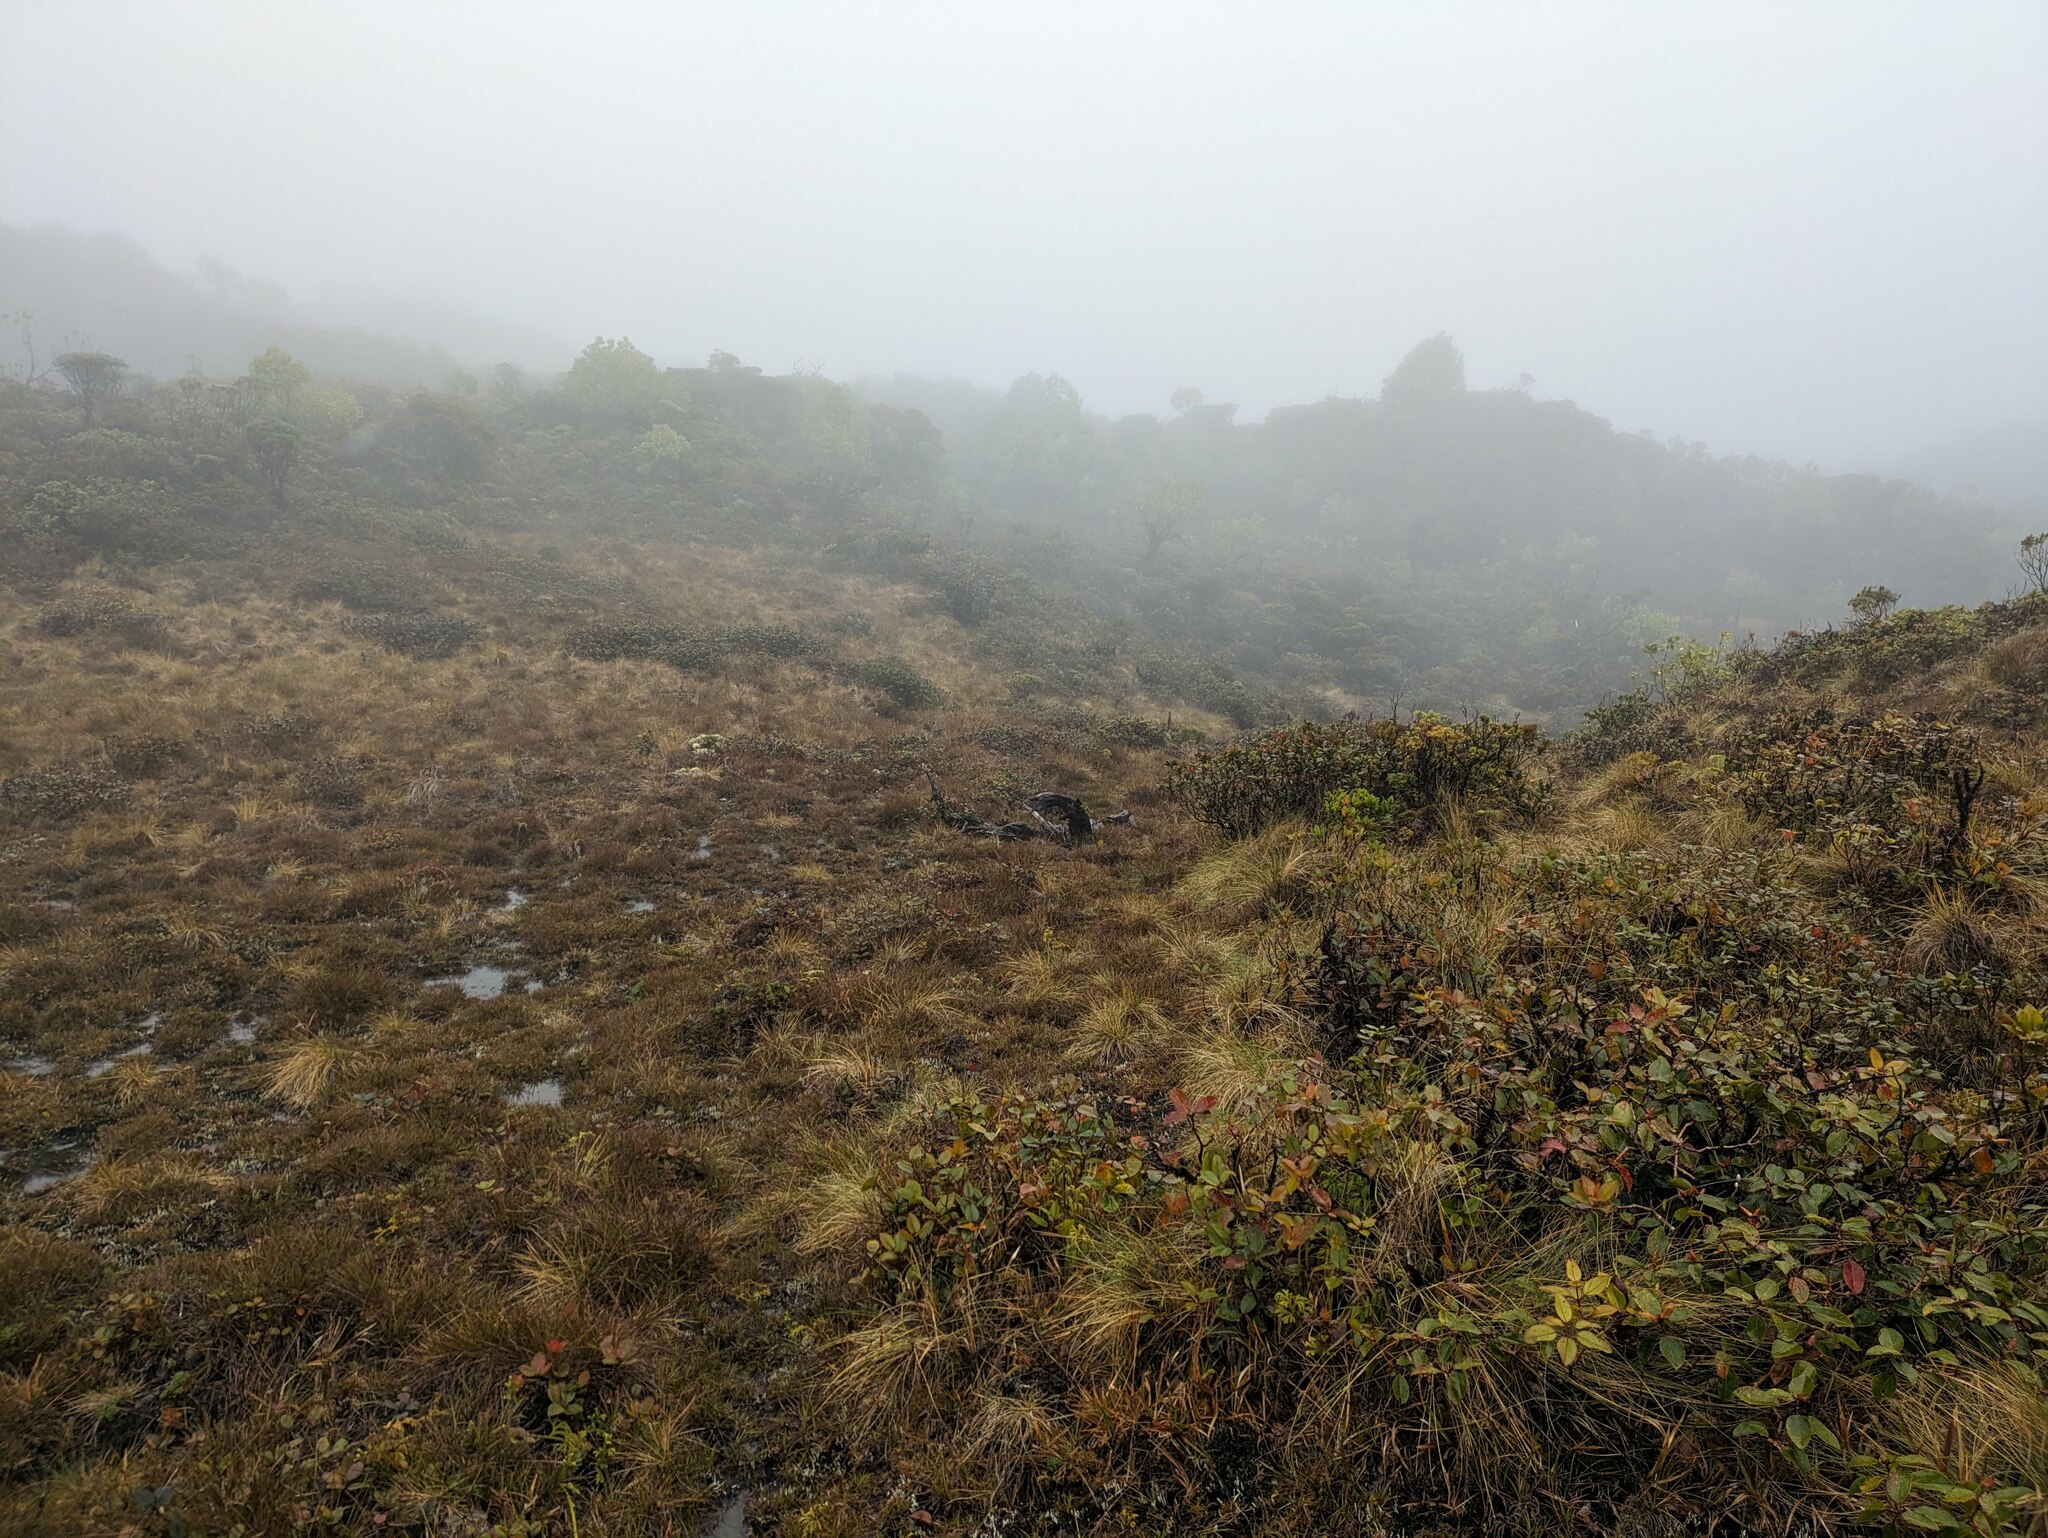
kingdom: Plantae
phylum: Tracheophyta
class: Magnoliopsida
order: Myrtales
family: Myrtaceae
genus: Metrosideros
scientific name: Metrosideros polymorpha
